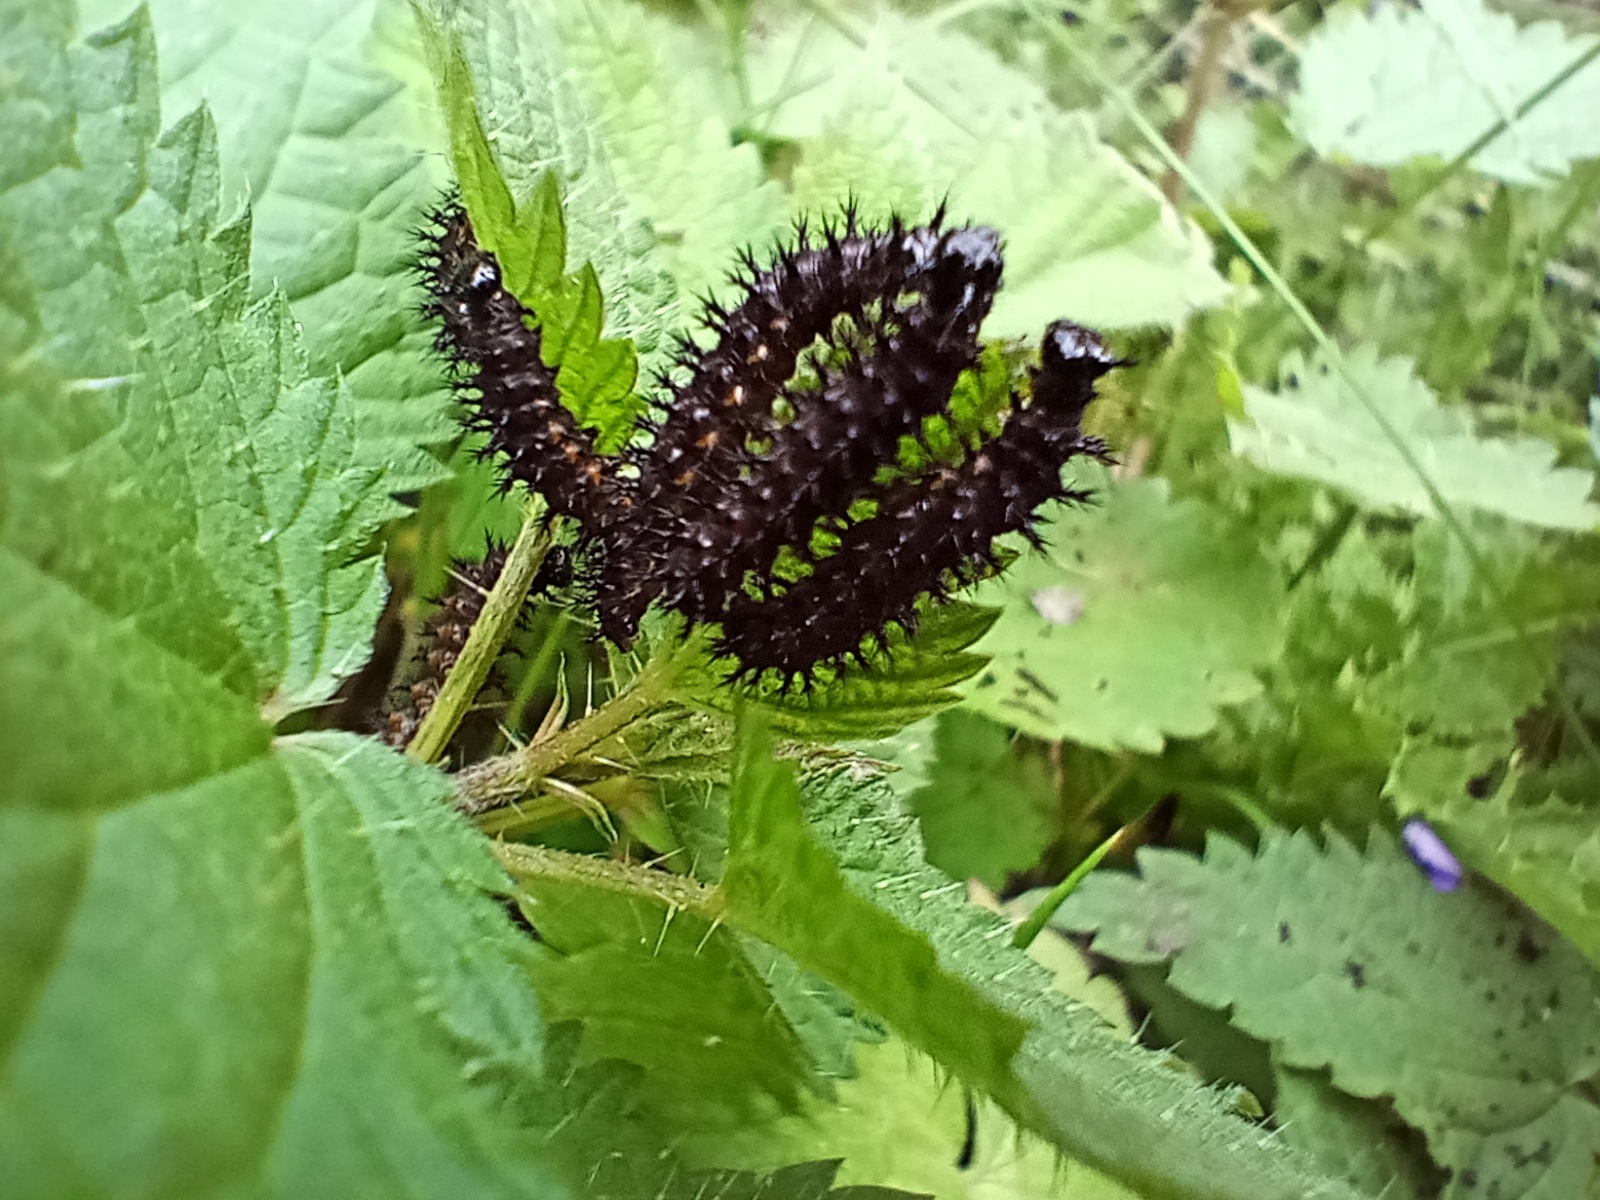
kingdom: Animalia
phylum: Arthropoda
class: Insecta
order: Lepidoptera
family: Nymphalidae
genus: Araschnia
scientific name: Araschnia levana
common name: Map butterfly
